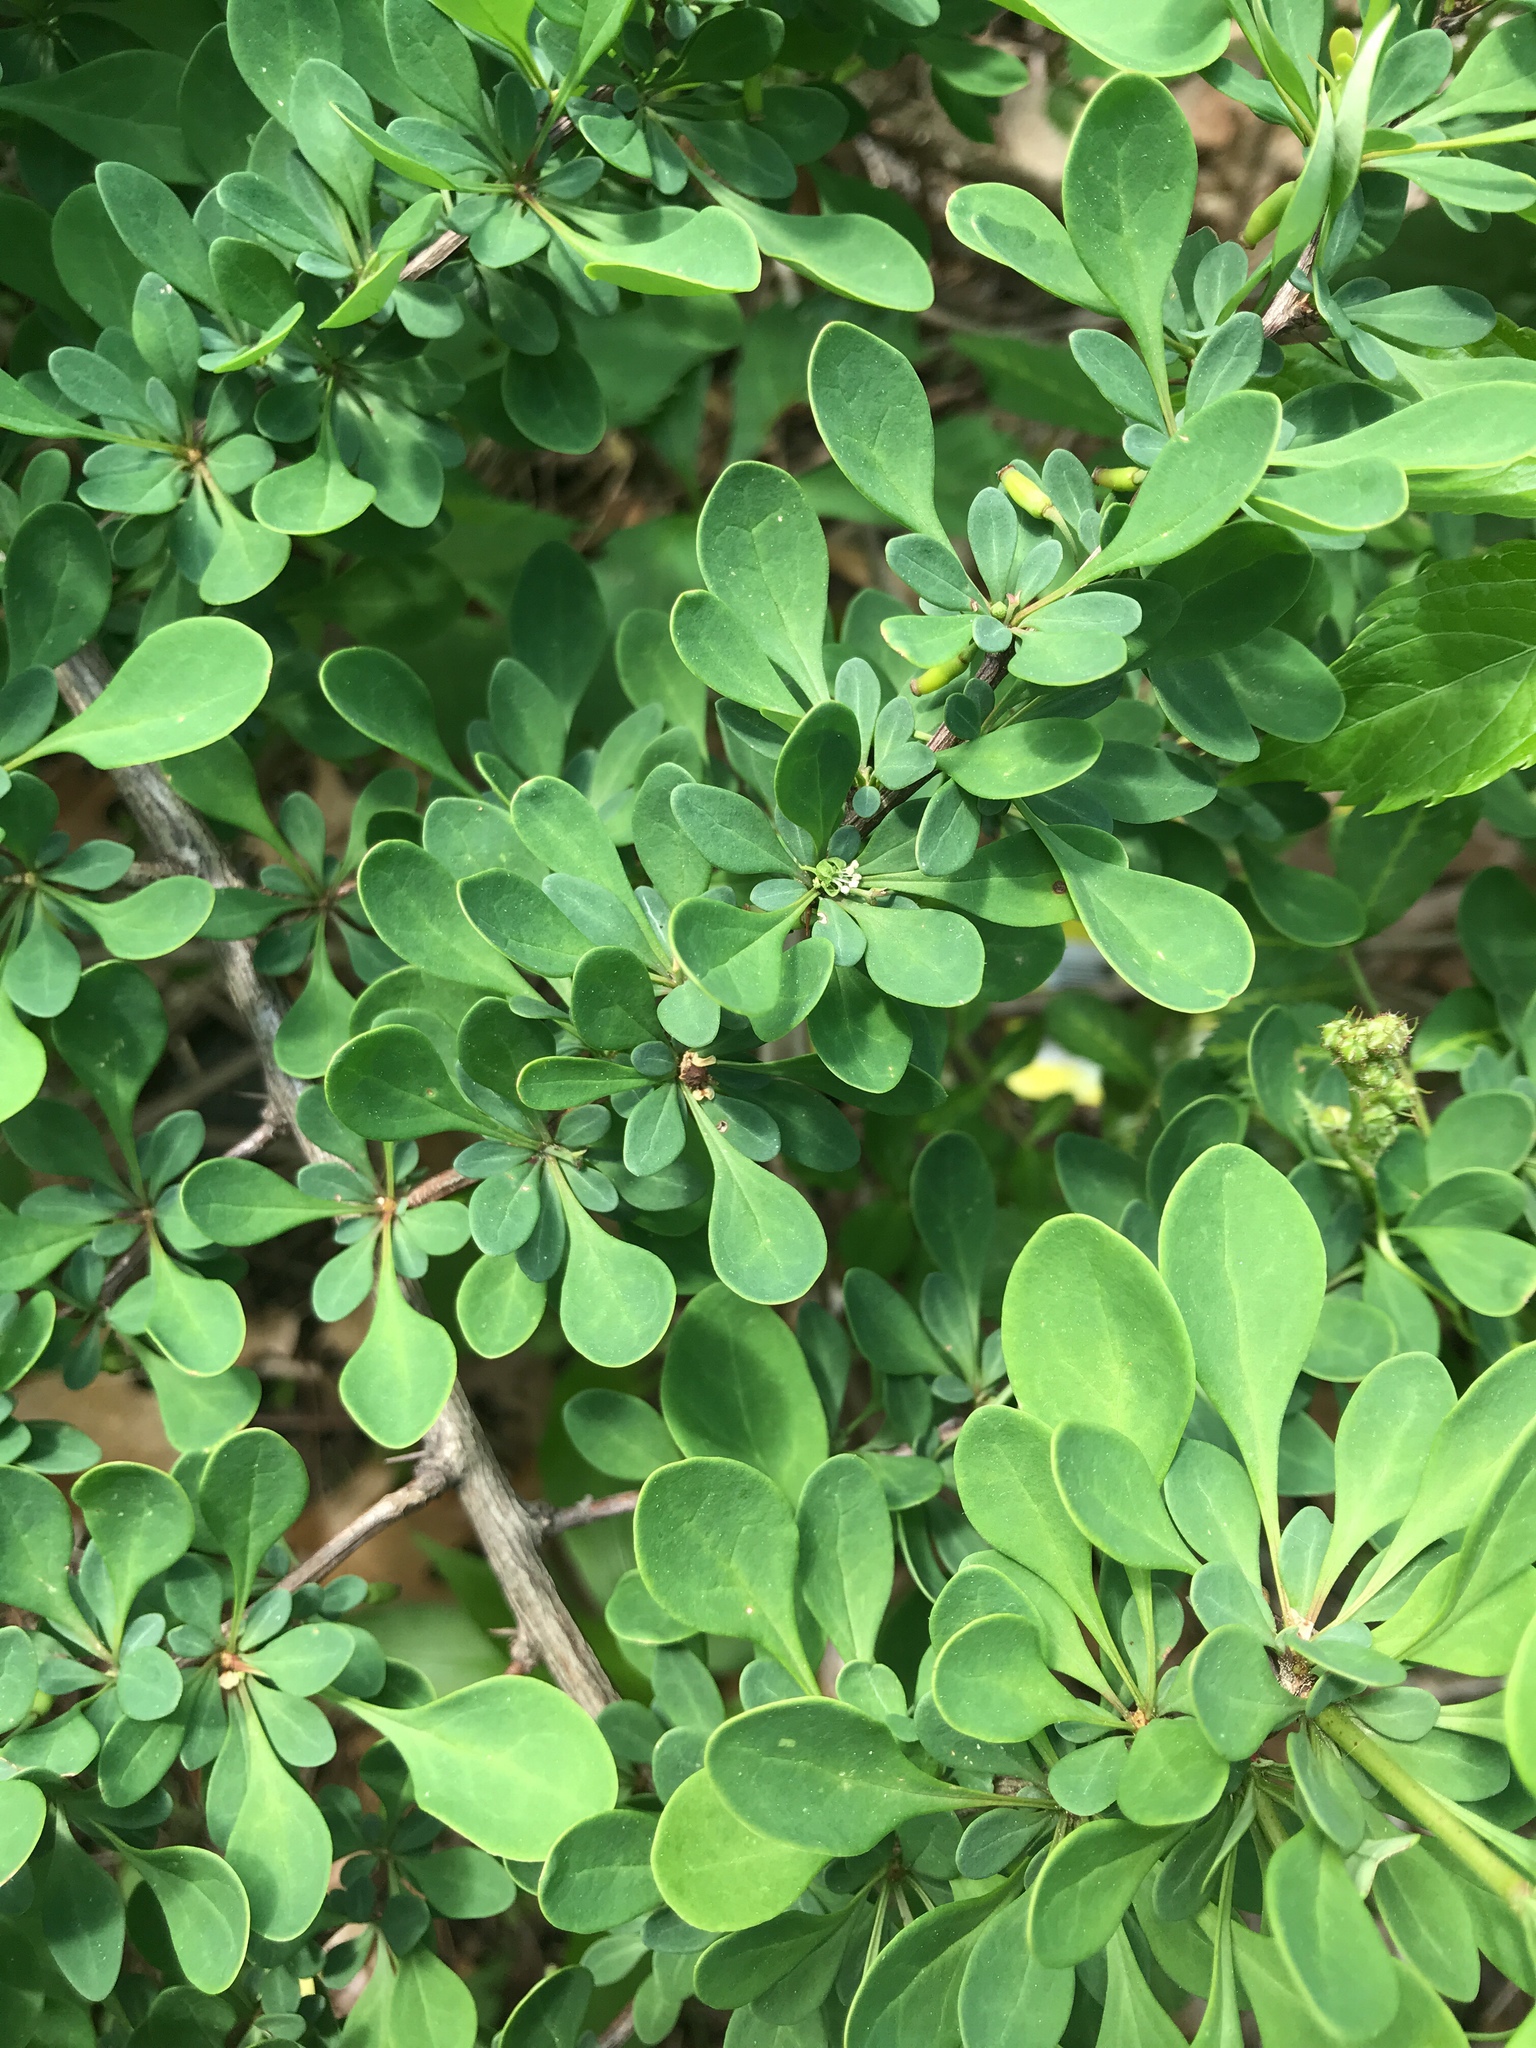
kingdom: Plantae
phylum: Tracheophyta
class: Magnoliopsida
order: Ranunculales
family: Berberidaceae
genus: Berberis
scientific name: Berberis thunbergii
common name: Japanese barberry
